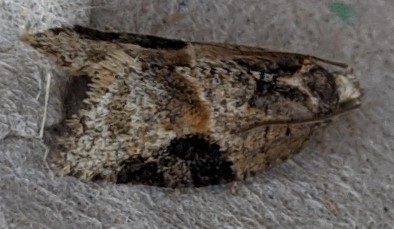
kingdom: Animalia
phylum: Arthropoda
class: Insecta
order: Lepidoptera
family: Tortricidae
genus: Argyrotaenia
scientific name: Argyrotaenia mariana
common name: Gray-banded leafroller moth
